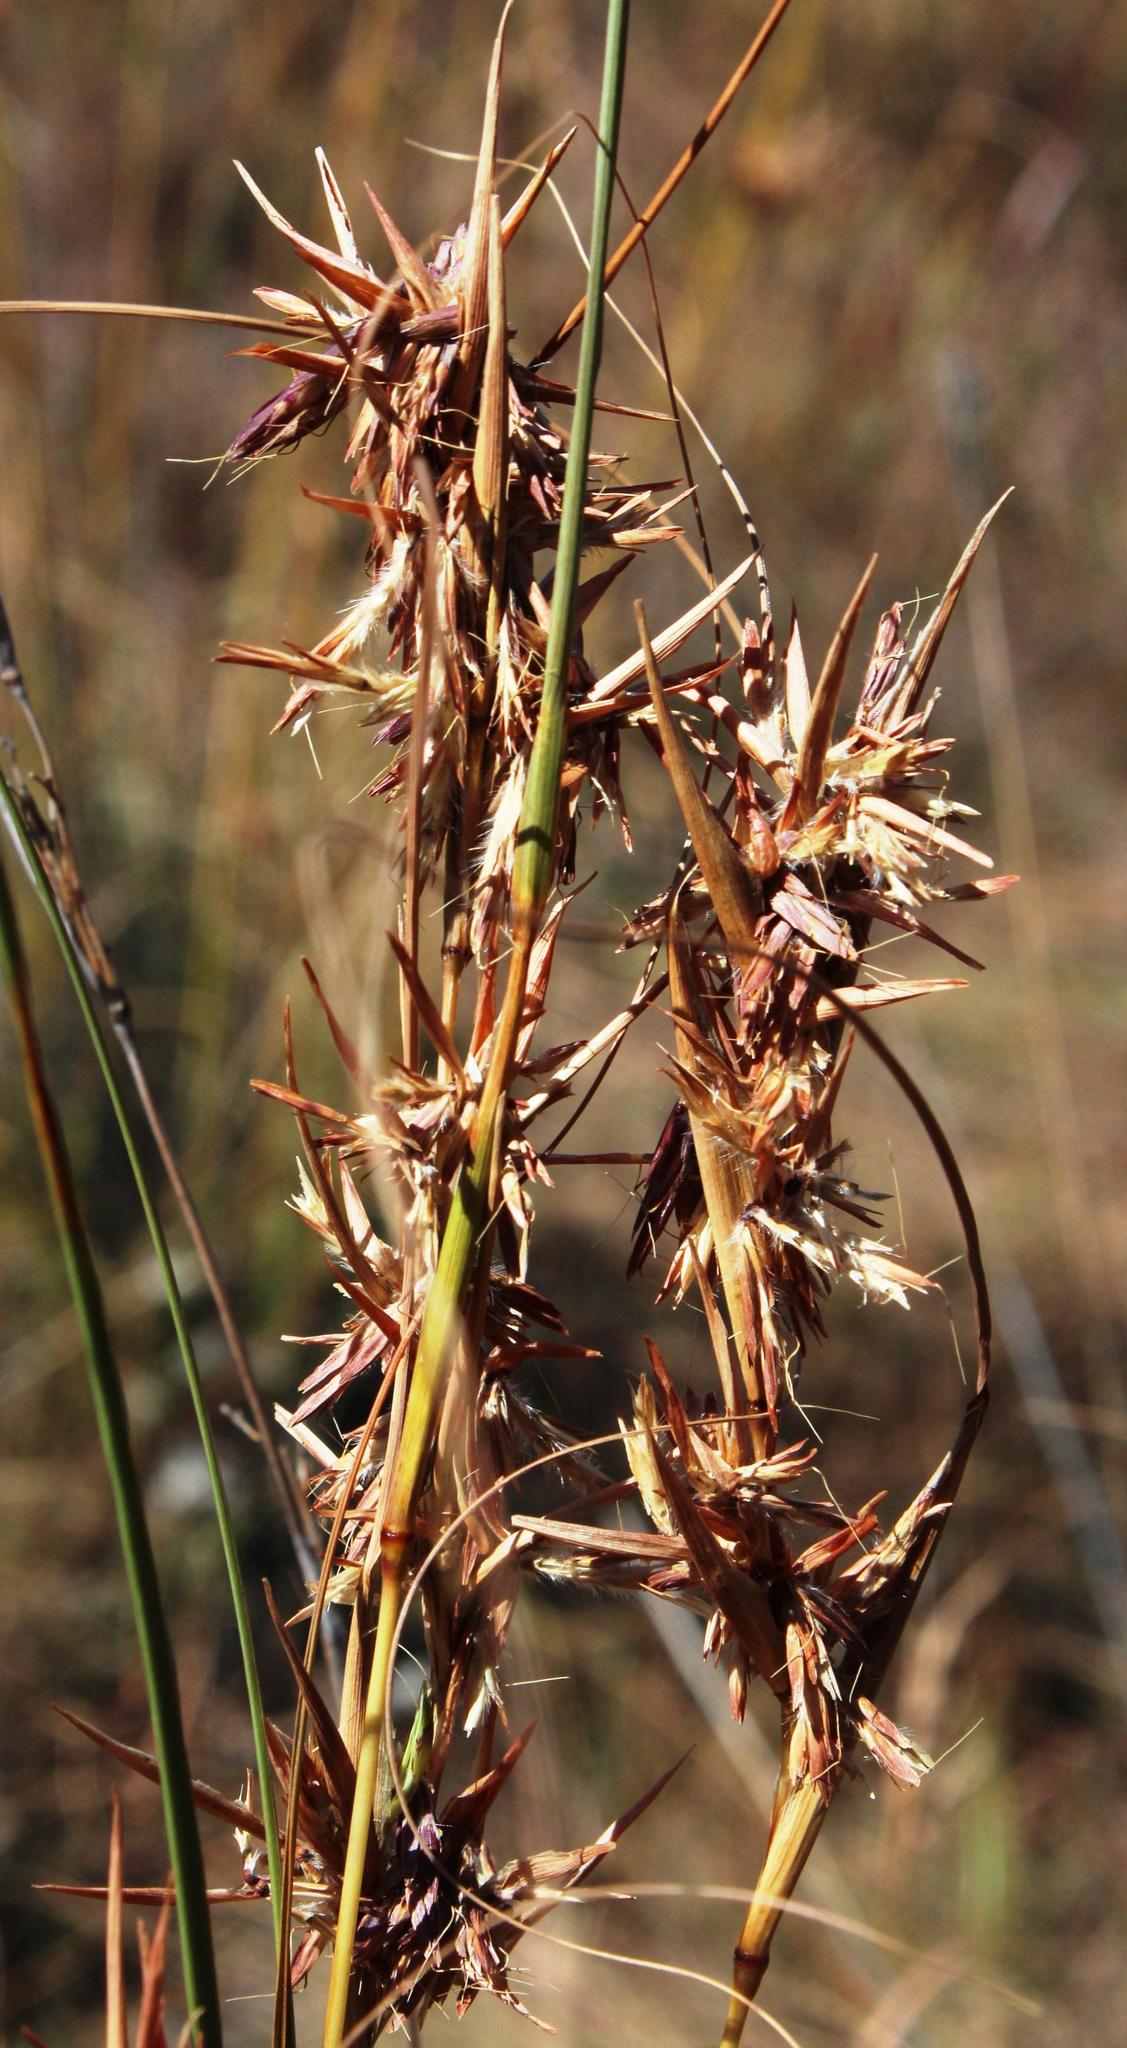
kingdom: Plantae
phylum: Tracheophyta
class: Liliopsida
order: Poales
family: Poaceae
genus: Cymbopogon
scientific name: Cymbopogon pospischilii
